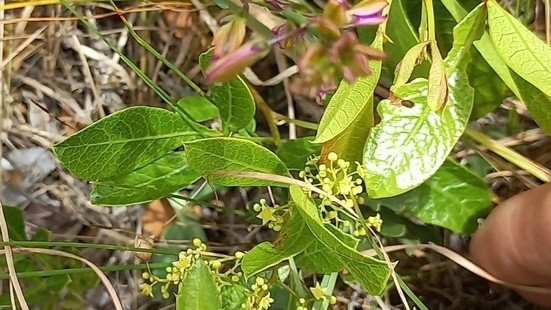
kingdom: Plantae
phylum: Tracheophyta
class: Magnoliopsida
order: Sapindales
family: Anacardiaceae
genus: Searsia
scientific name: Searsia laevigata
